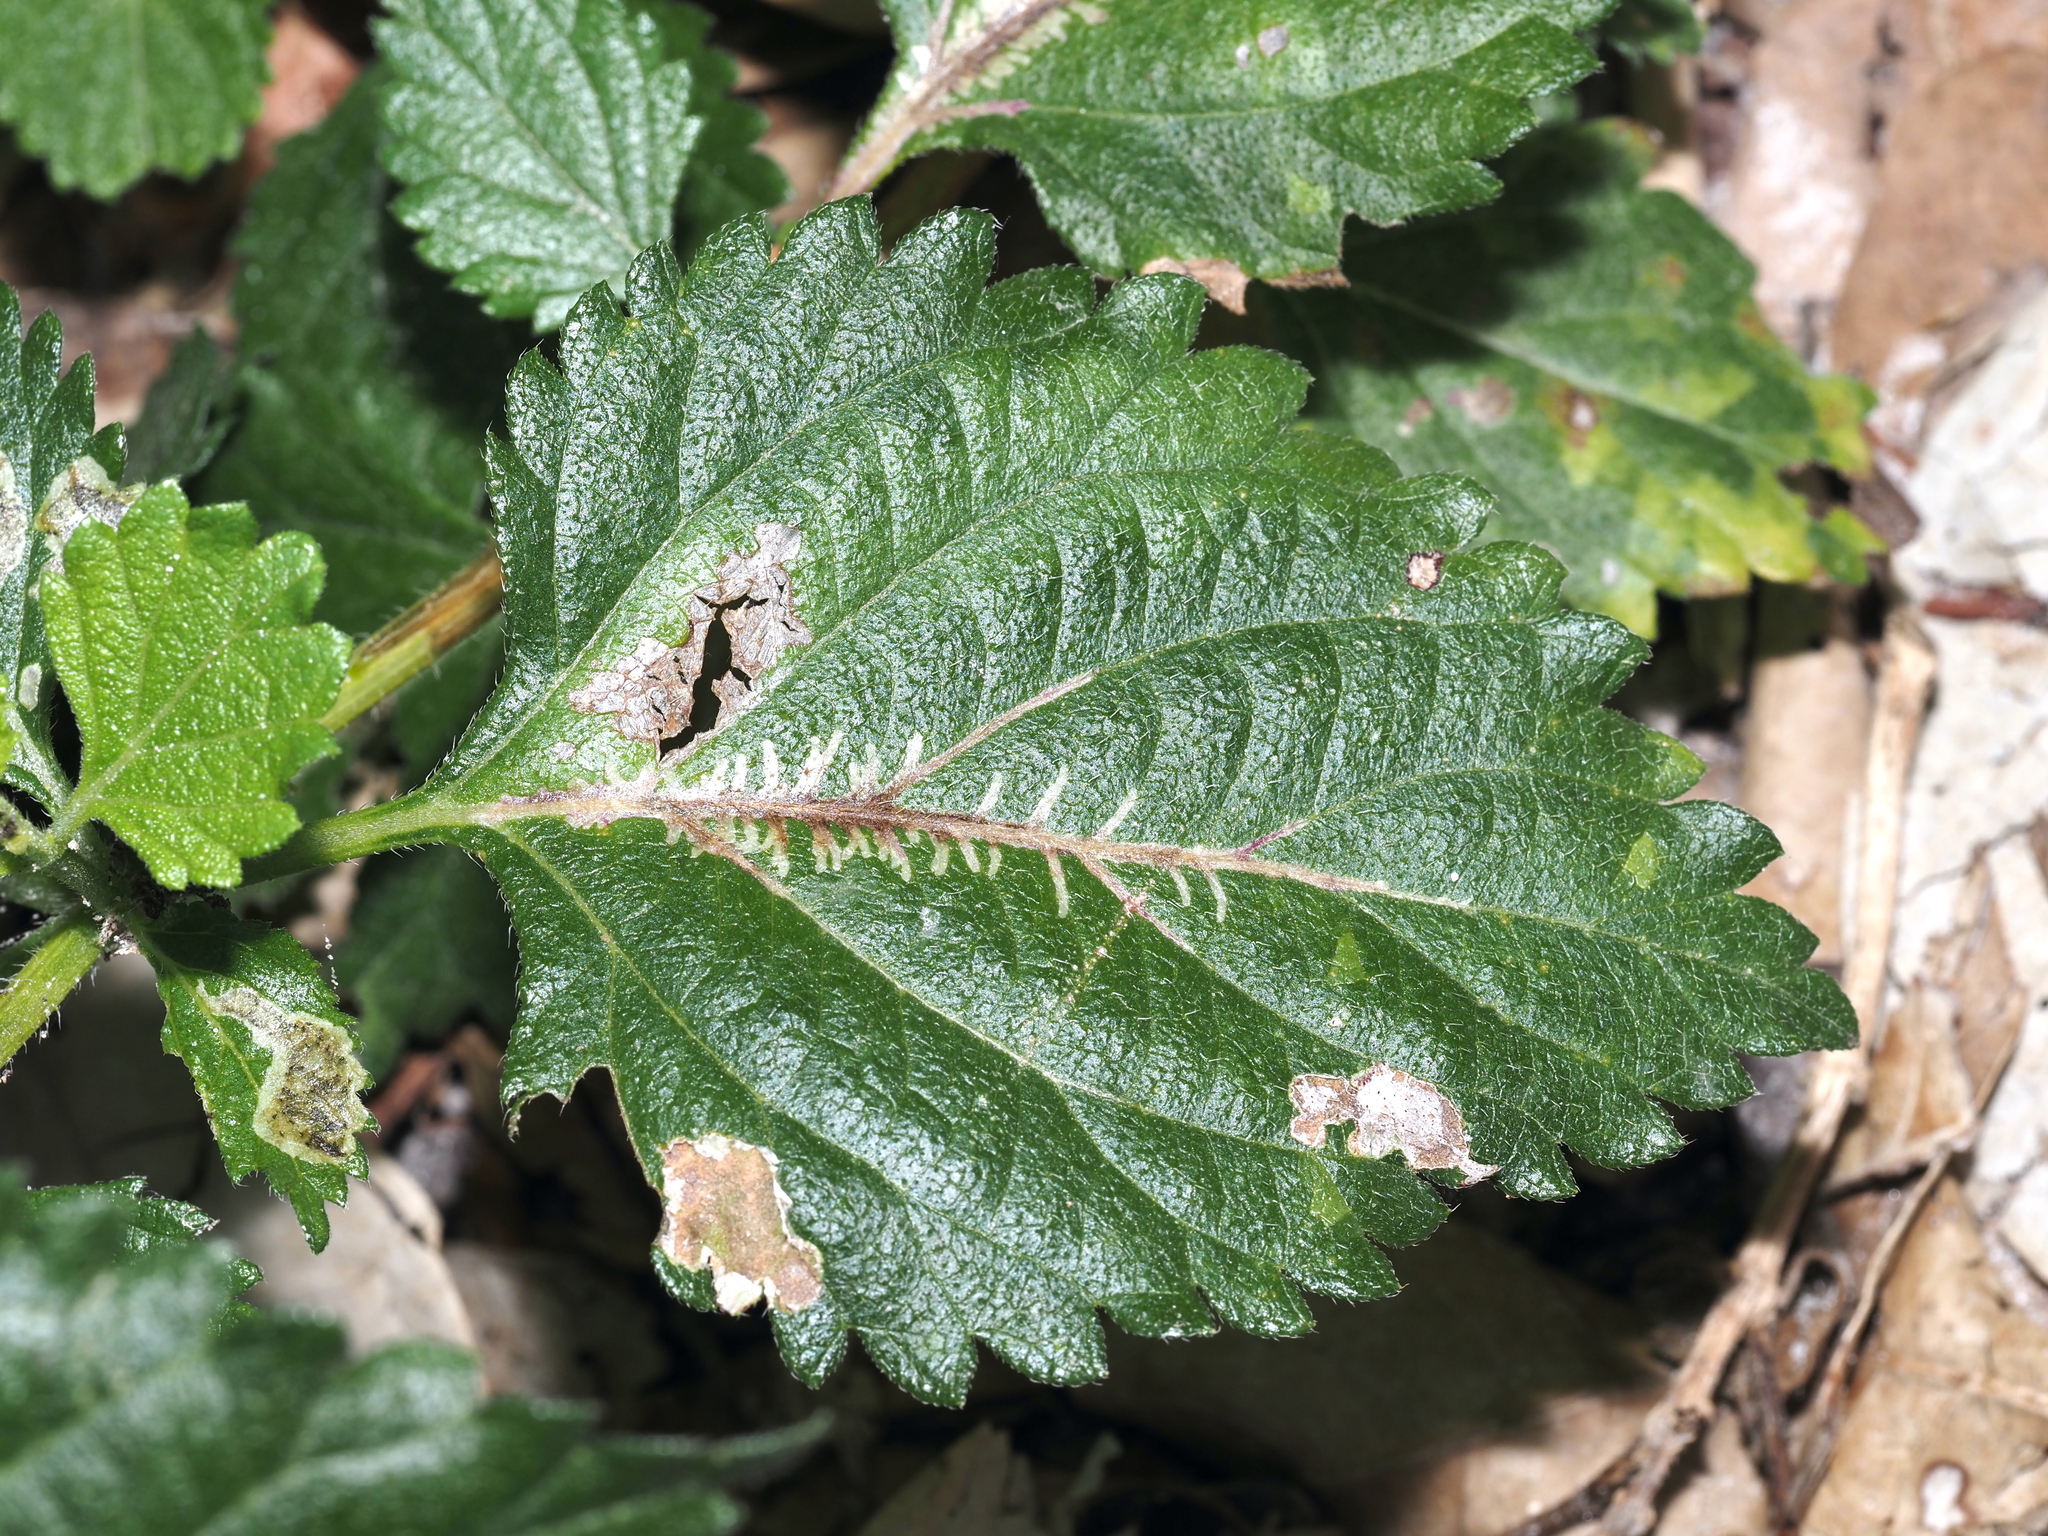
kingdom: Animalia
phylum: Arthropoda
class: Insecta
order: Diptera
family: Agromyzidae
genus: Ophiomyia
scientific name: Ophiomyia camarae
